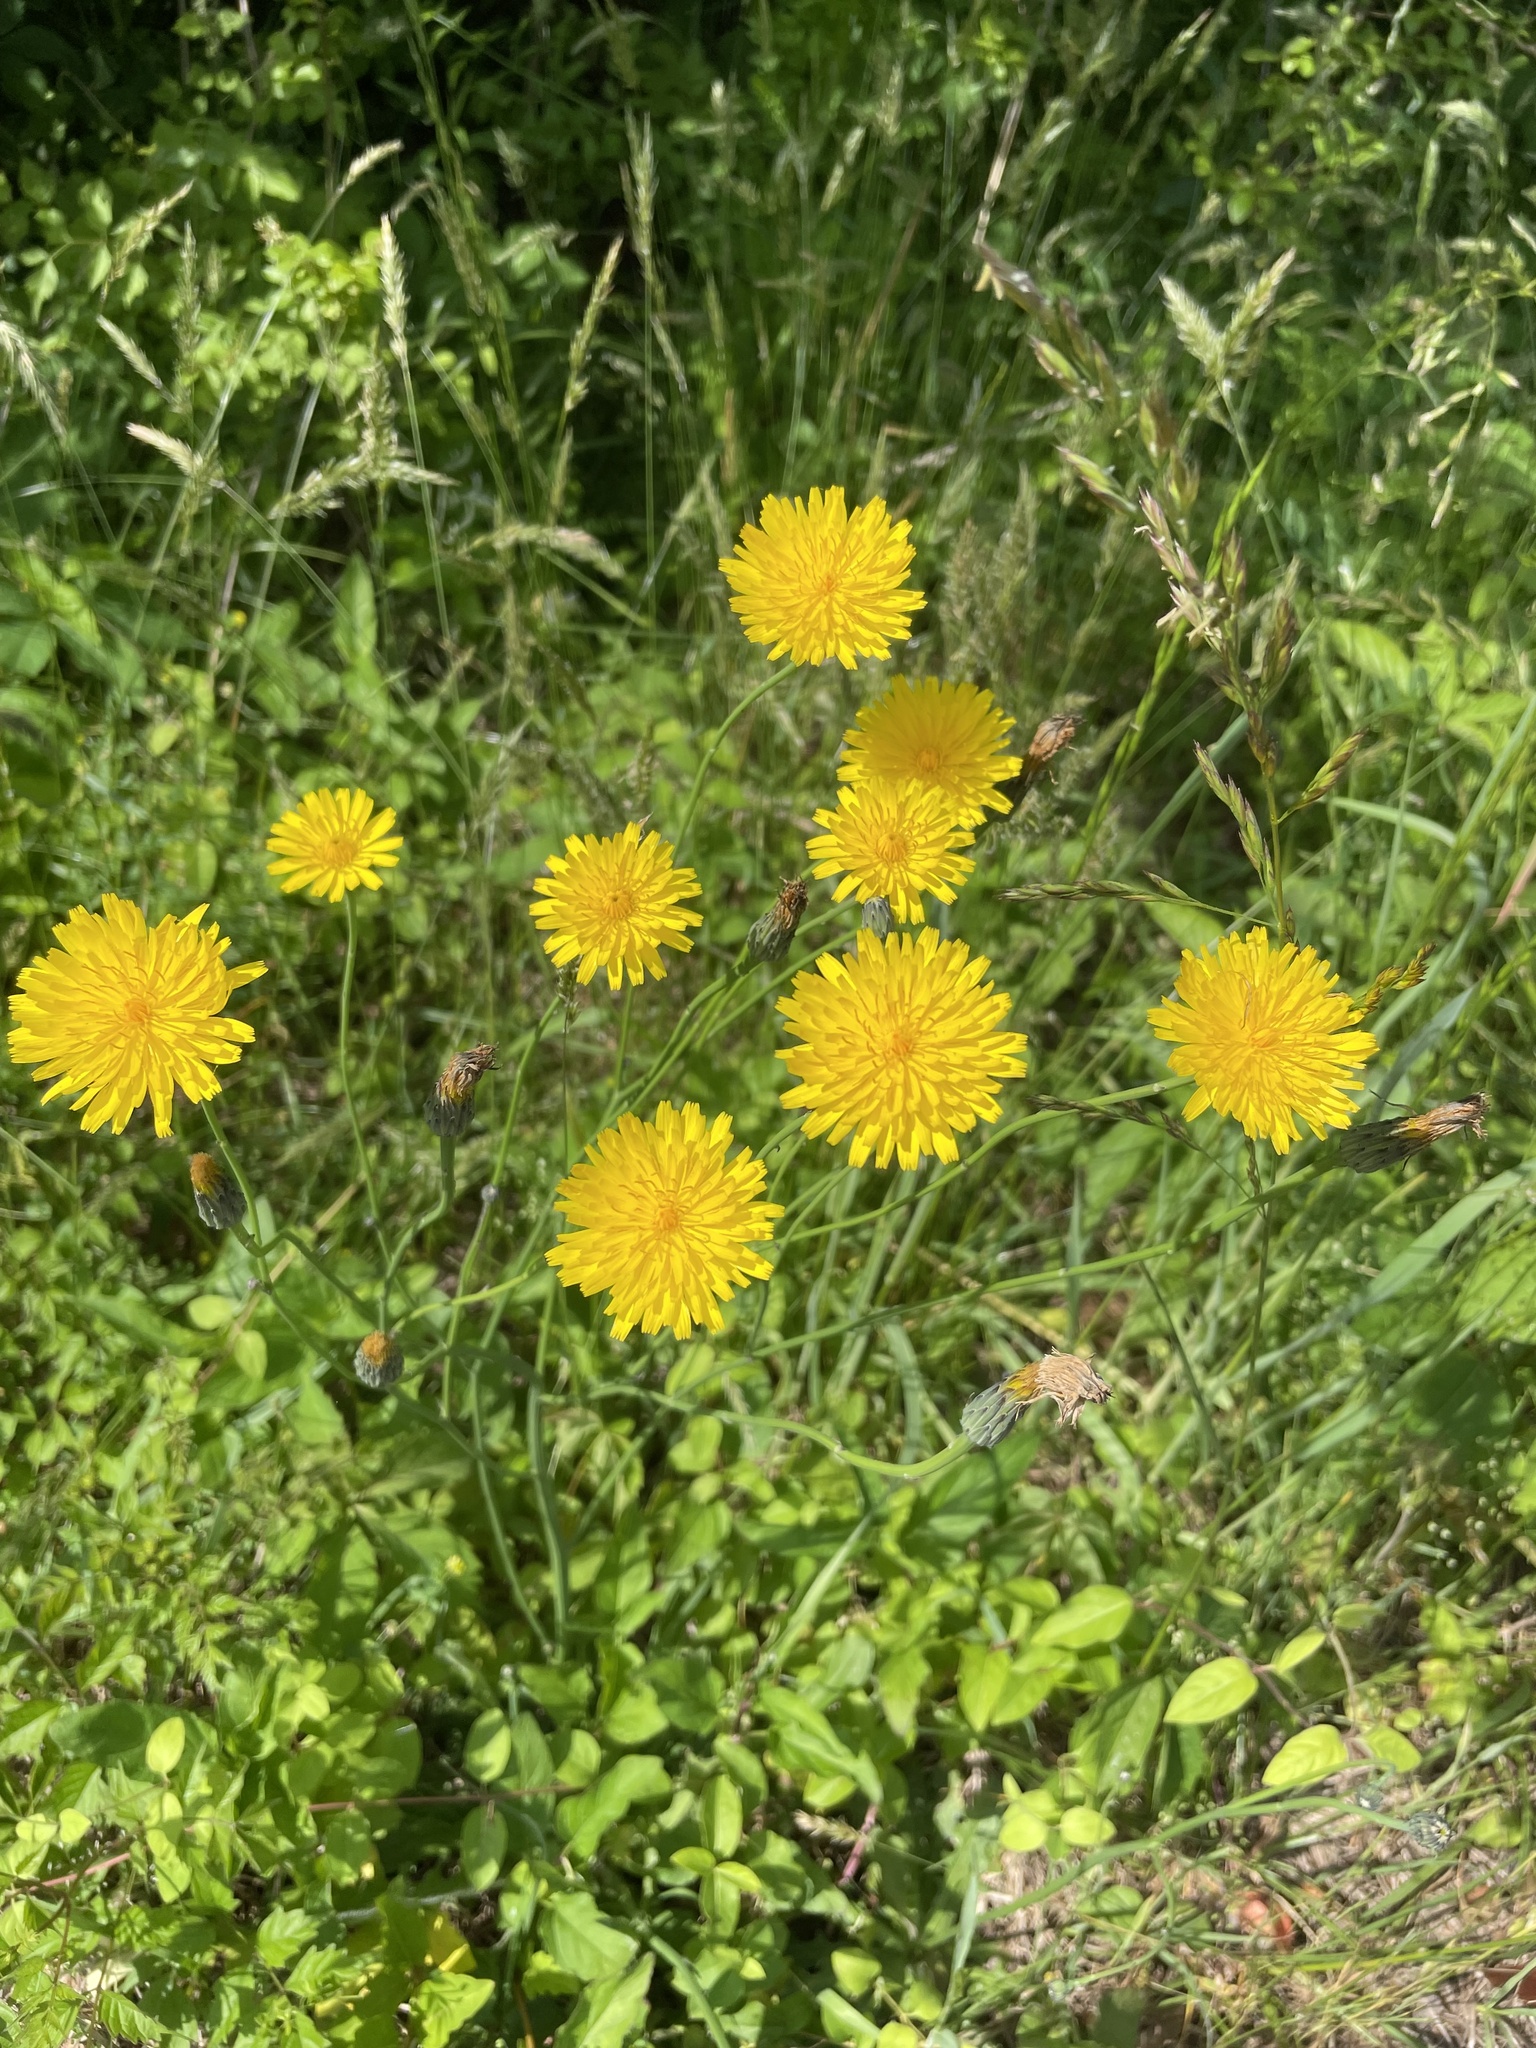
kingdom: Plantae
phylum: Tracheophyta
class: Magnoliopsida
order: Asterales
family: Asteraceae
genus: Hypochaeris
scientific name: Hypochaeris radicata
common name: Flatweed
